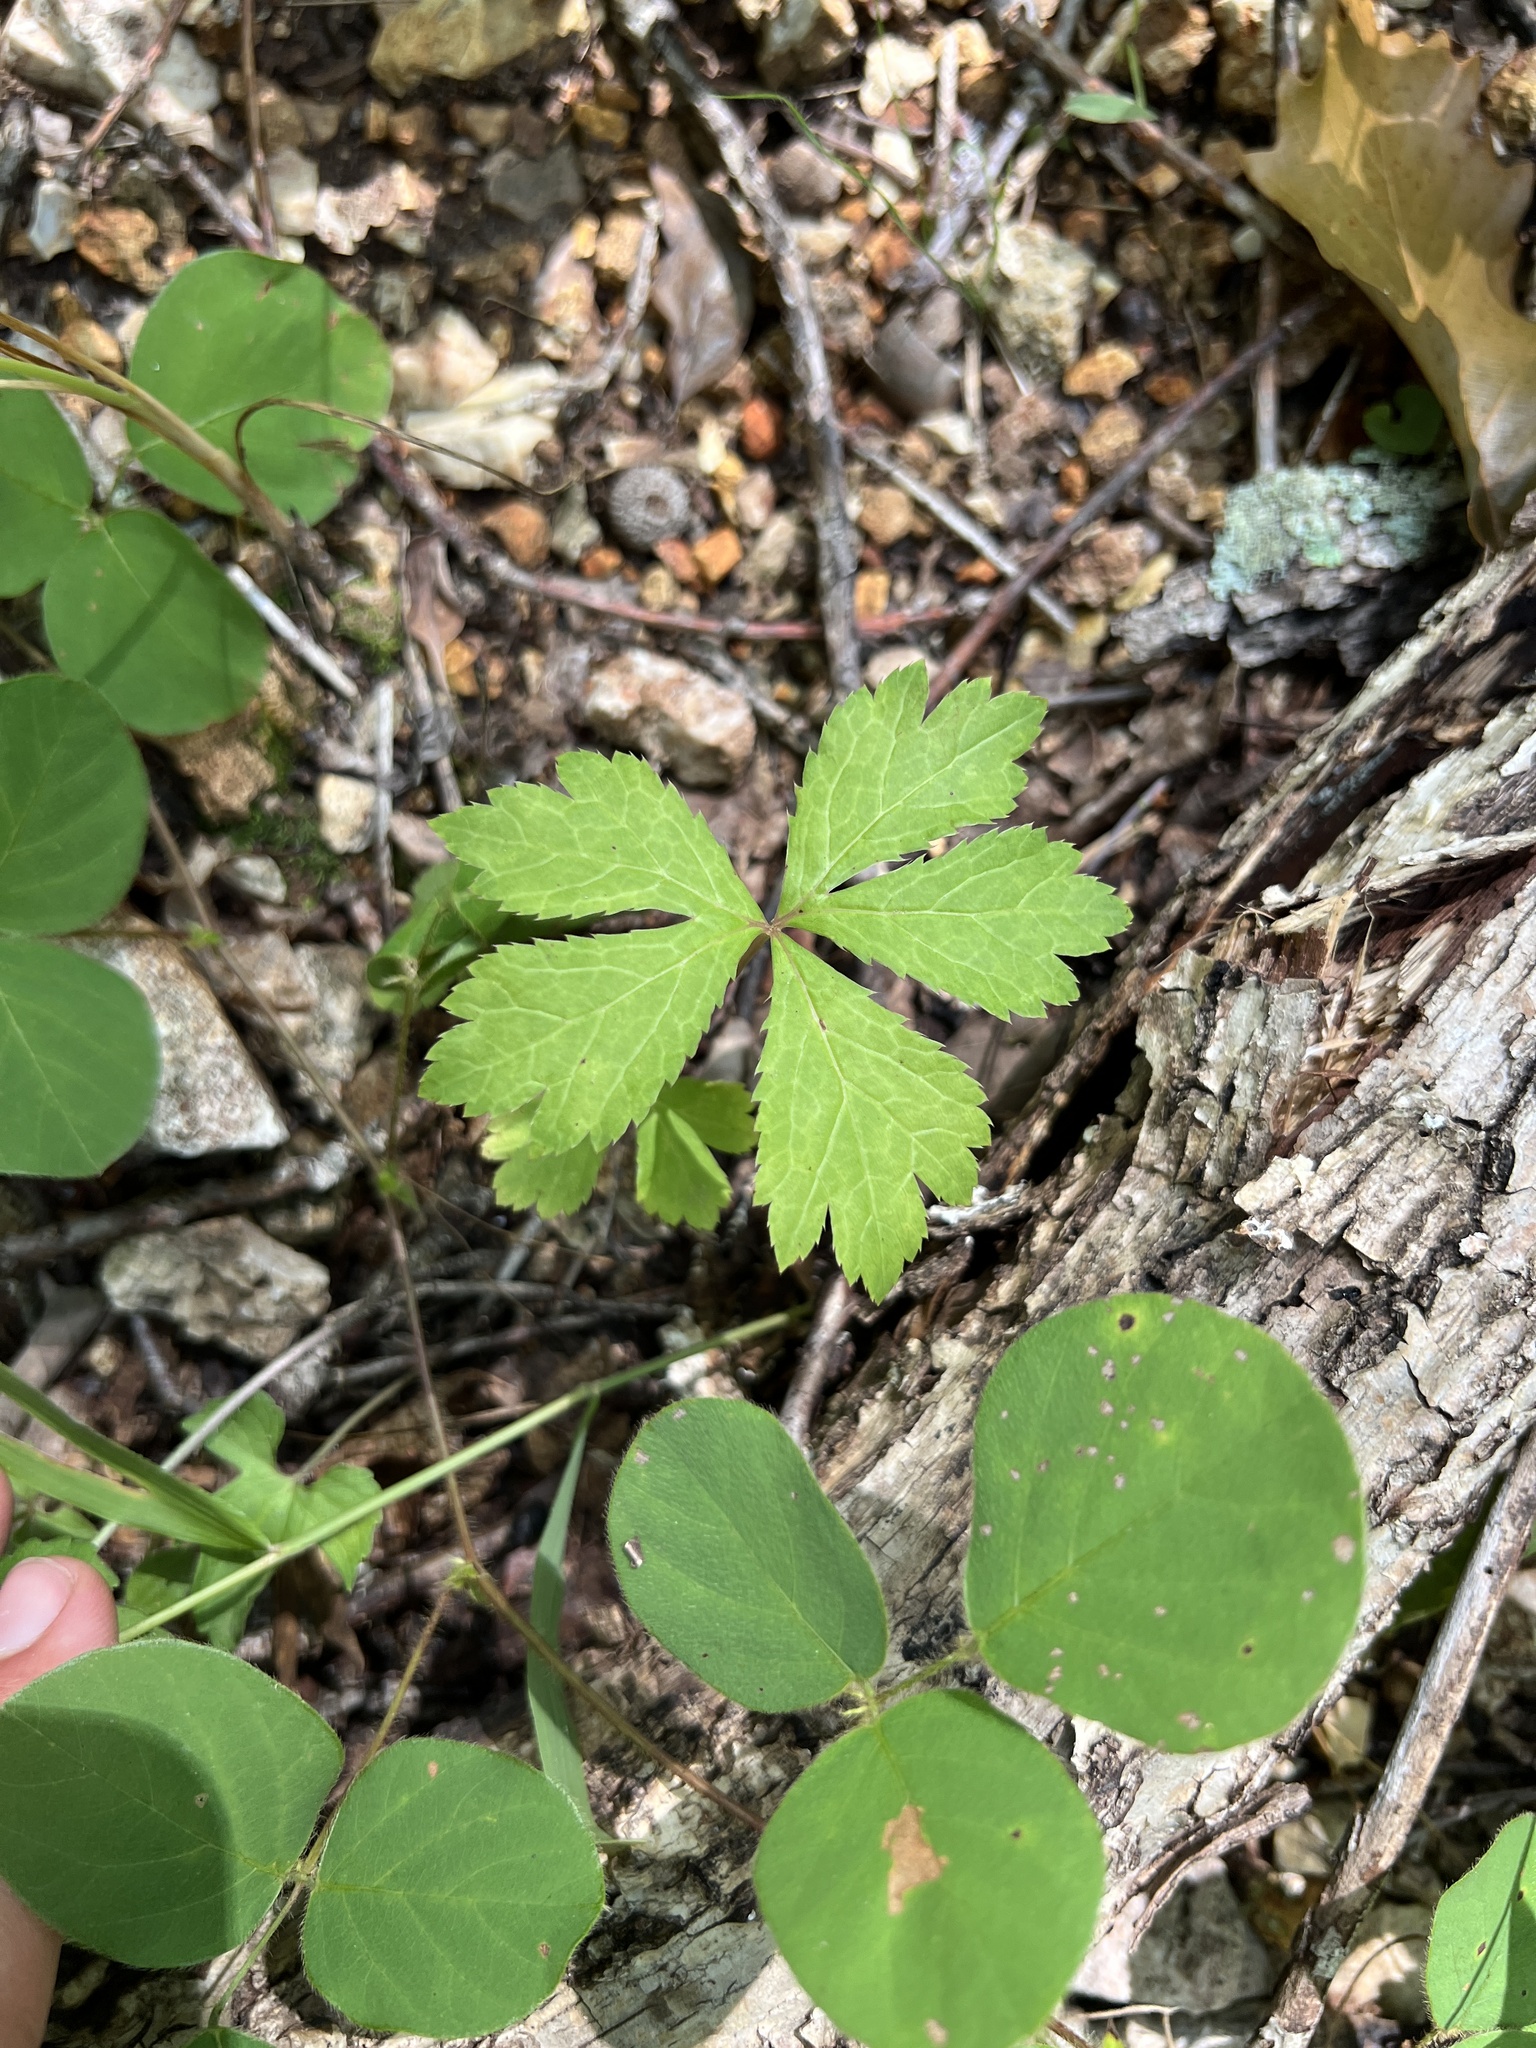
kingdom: Plantae
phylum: Tracheophyta
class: Magnoliopsida
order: Apiales
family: Apiaceae
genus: Sanicula
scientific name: Sanicula odorata
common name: Cluster sanicle
